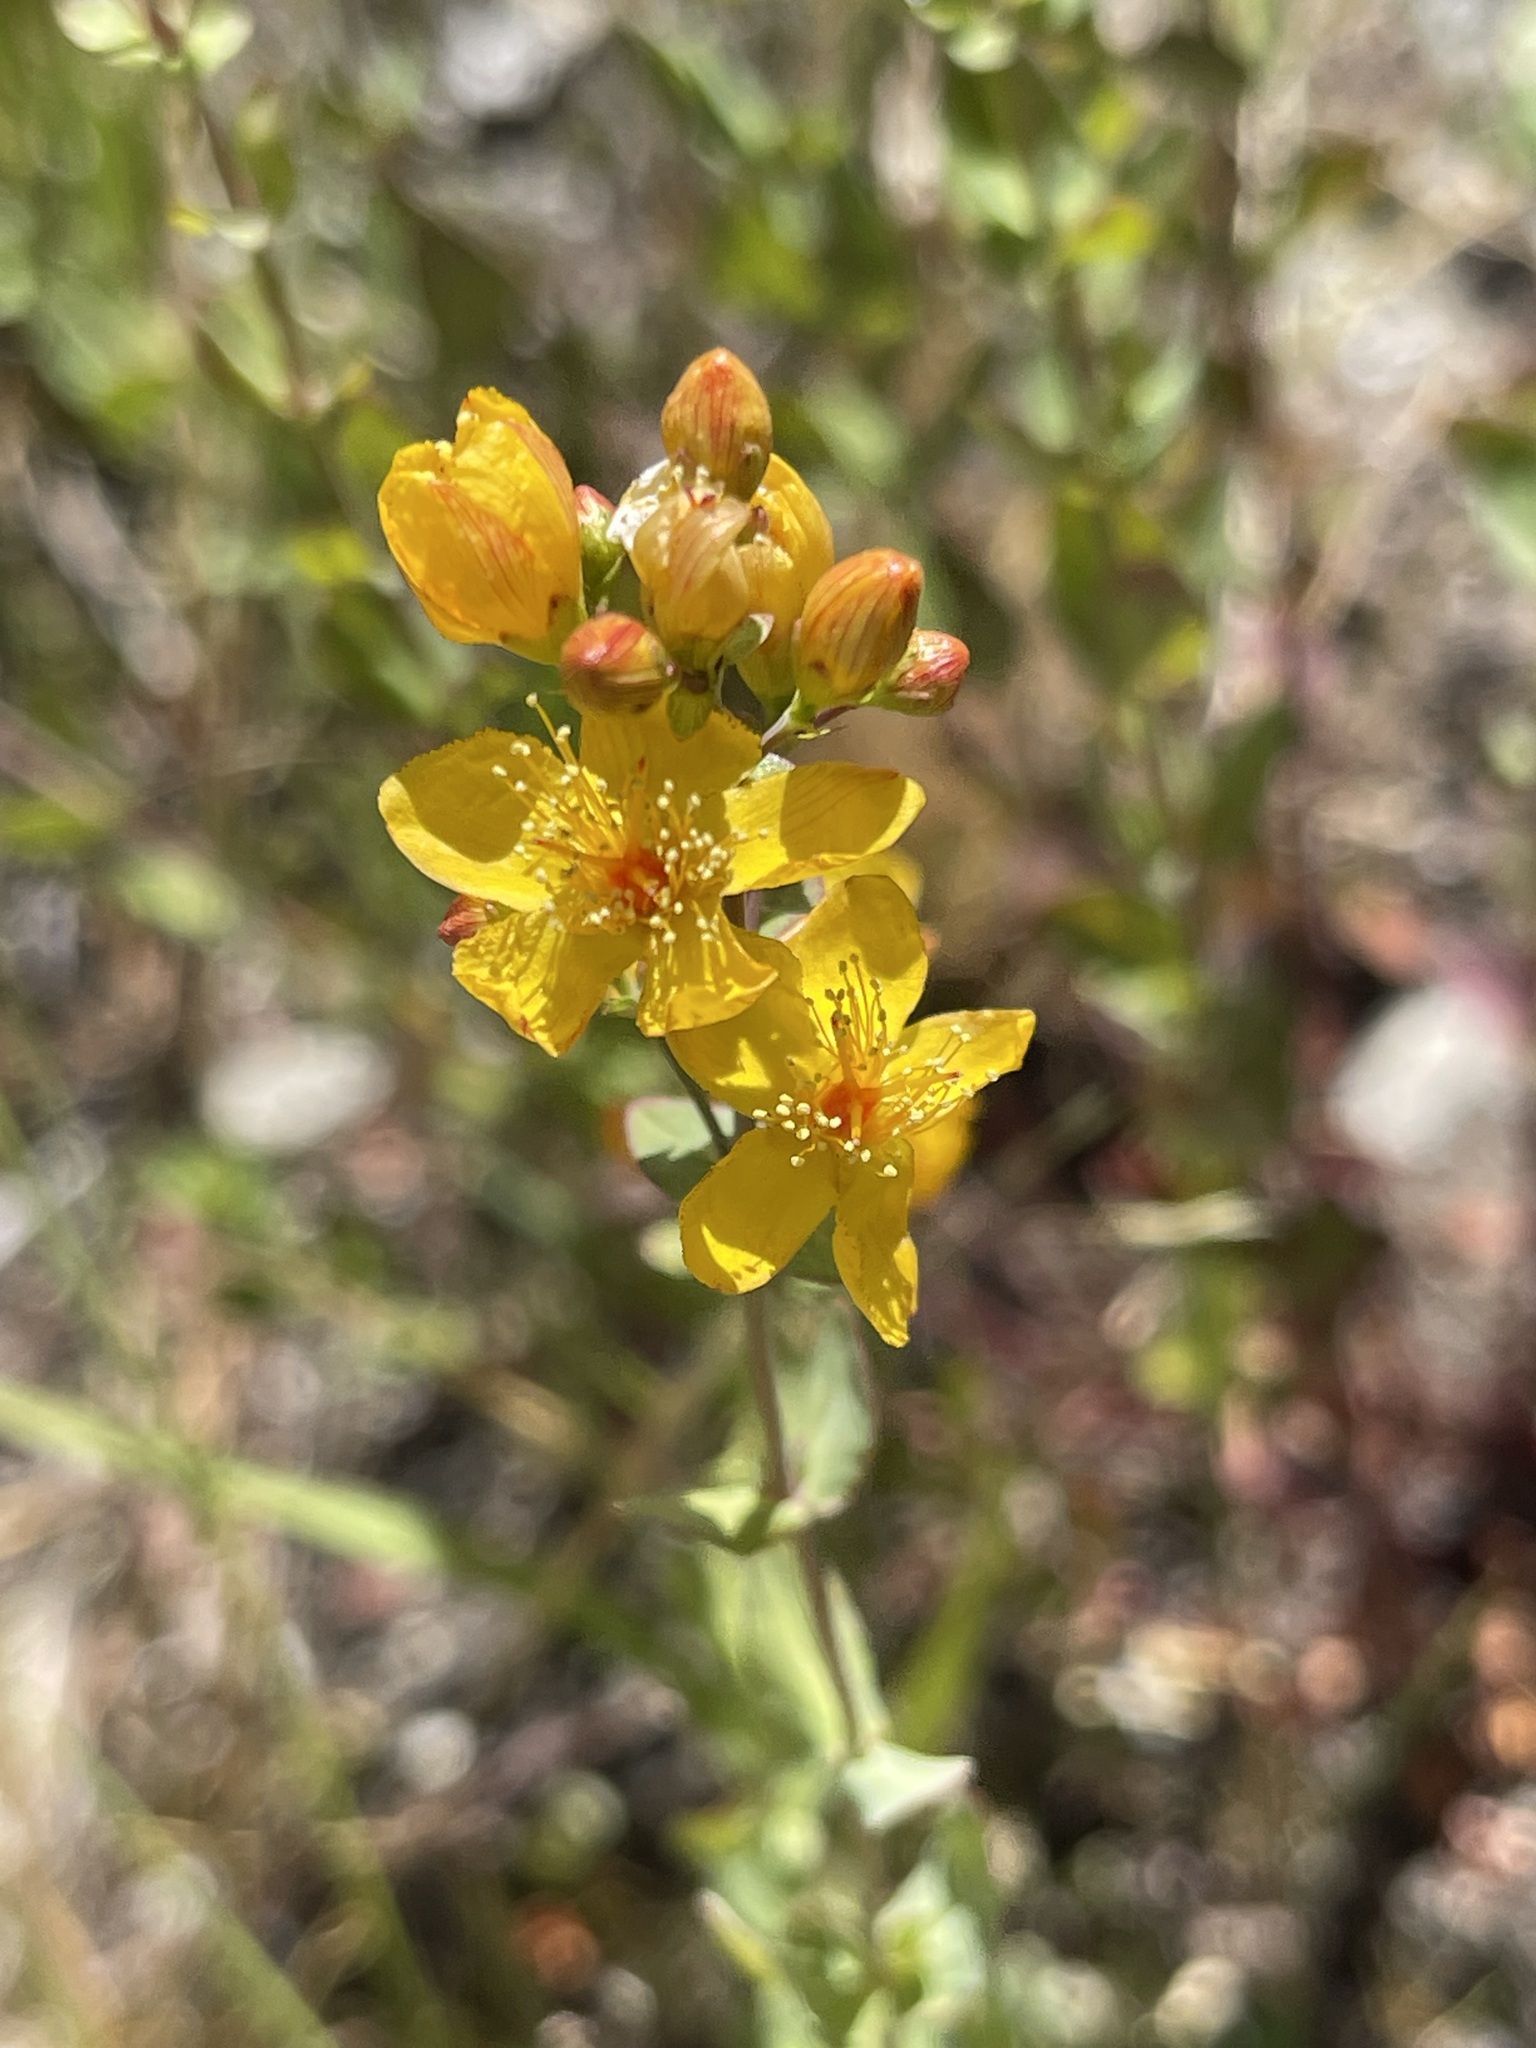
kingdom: Plantae
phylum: Tracheophyta
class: Magnoliopsida
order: Malpighiales
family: Hypericaceae
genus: Hypericum
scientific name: Hypericum scouleri
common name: Scouler's st. john's-wort
